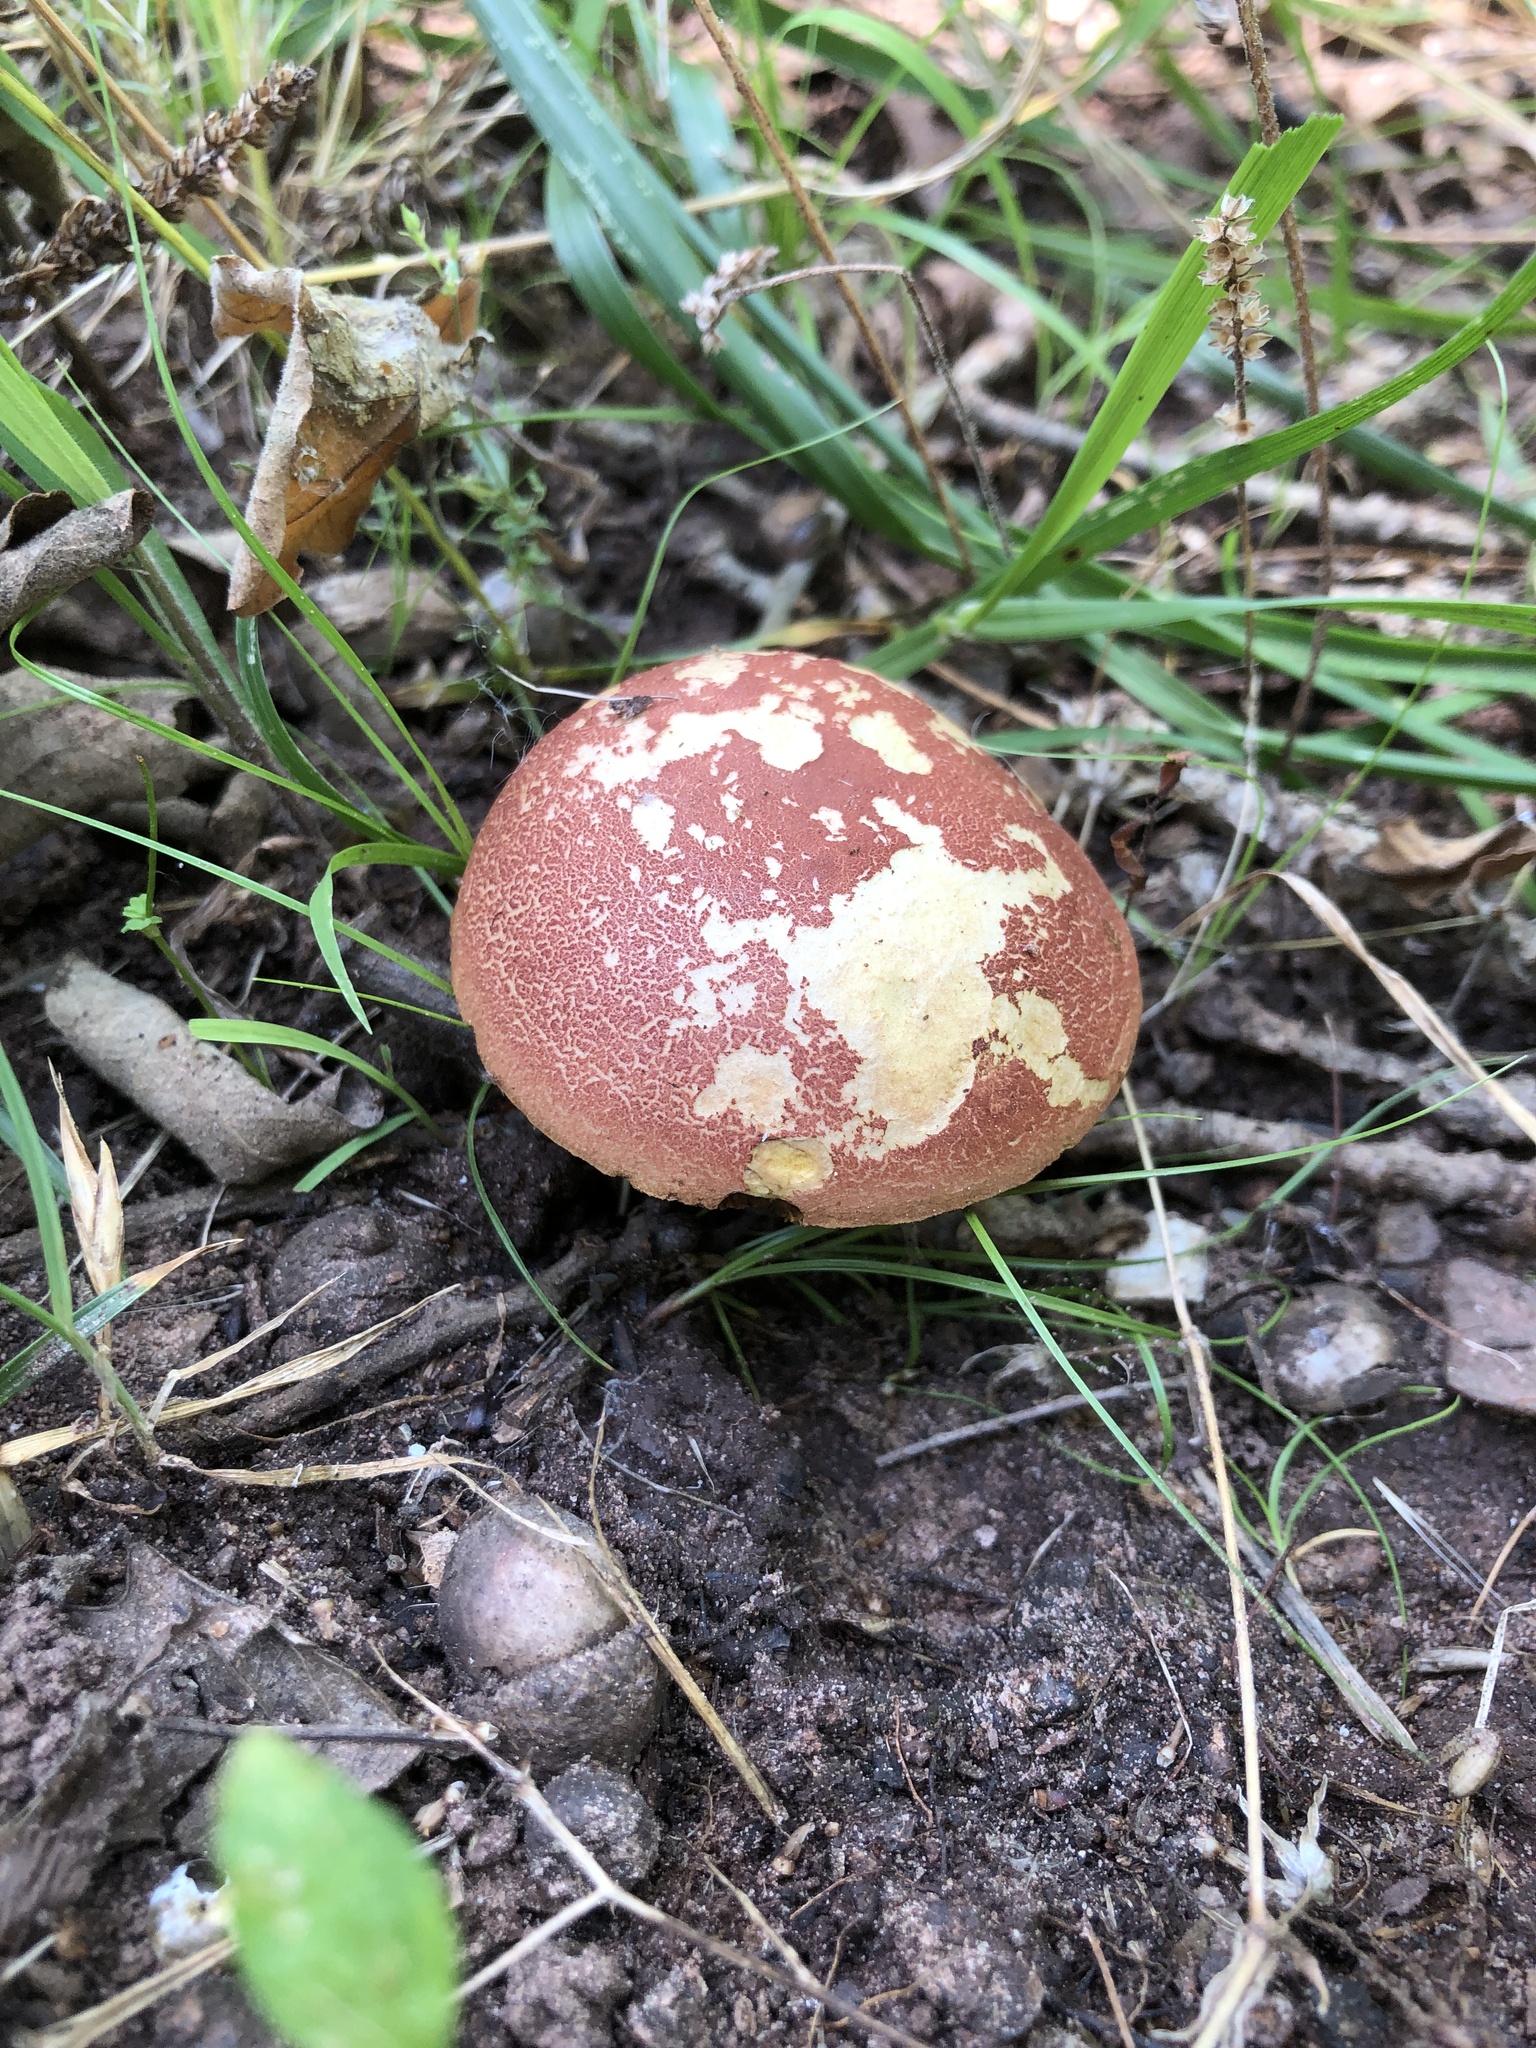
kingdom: Fungi
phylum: Basidiomycota
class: Agaricomycetes
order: Boletales
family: Boletaceae
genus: Hortiboletus
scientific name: Hortiboletus rubellus
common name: Ruby bolete
